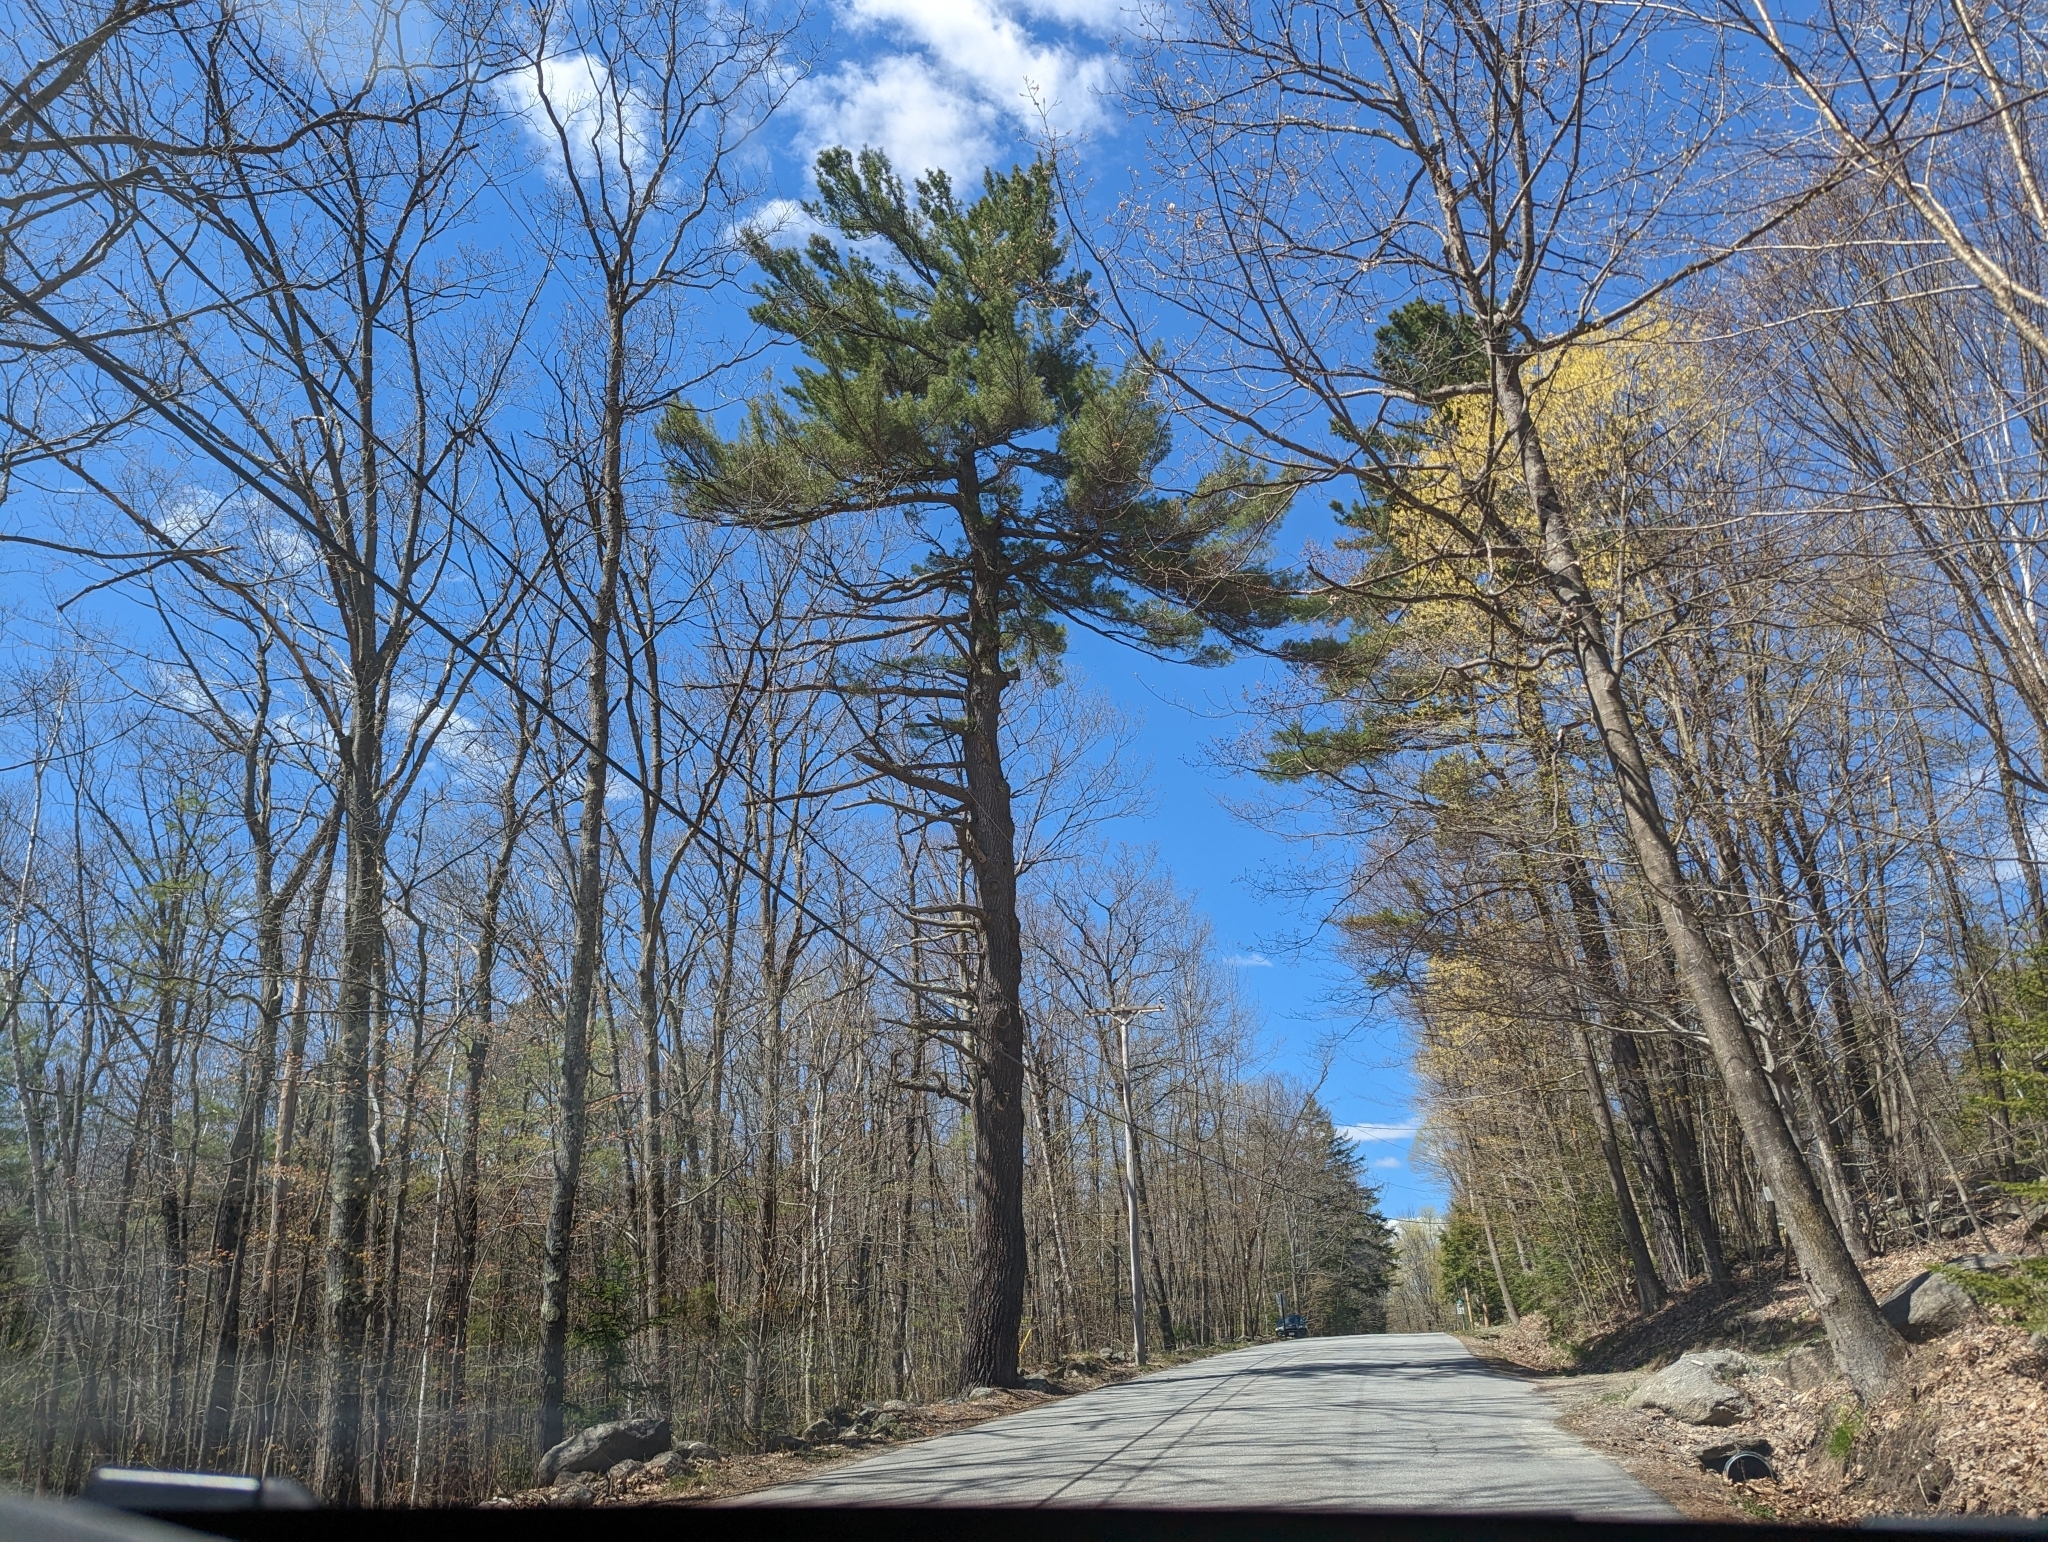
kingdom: Plantae
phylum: Tracheophyta
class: Pinopsida
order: Pinales
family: Pinaceae
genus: Pinus
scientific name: Pinus strobus
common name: Weymouth pine
